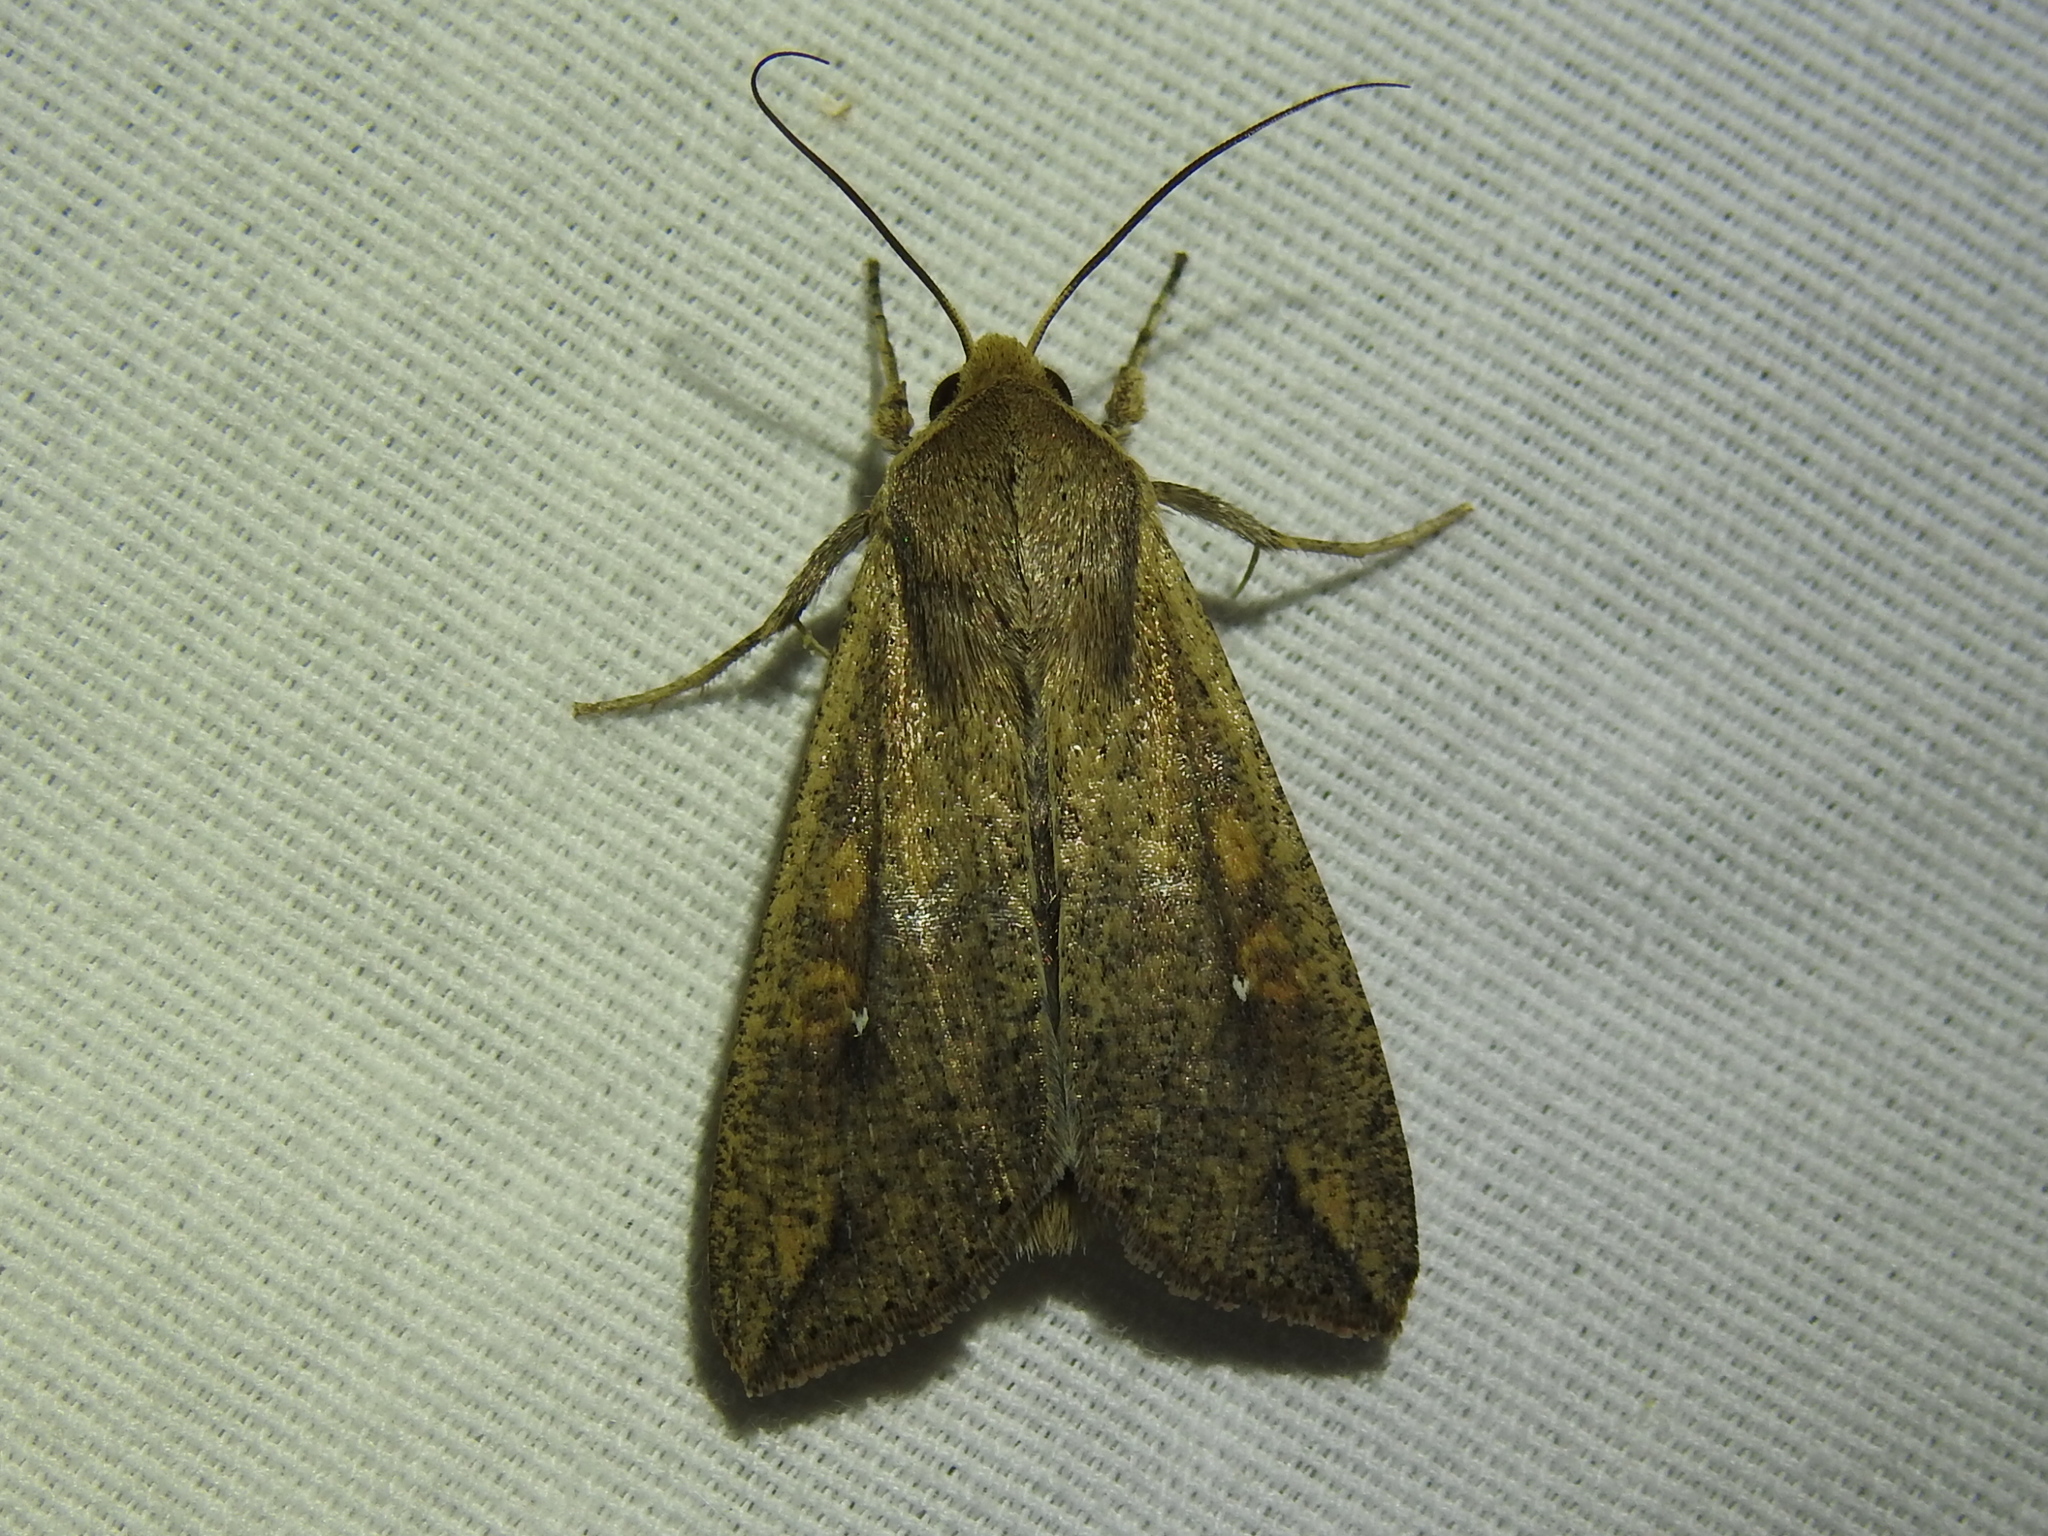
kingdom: Animalia
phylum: Arthropoda
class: Insecta
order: Lepidoptera
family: Noctuidae
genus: Mythimna
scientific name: Mythimna unipuncta
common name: White-speck
